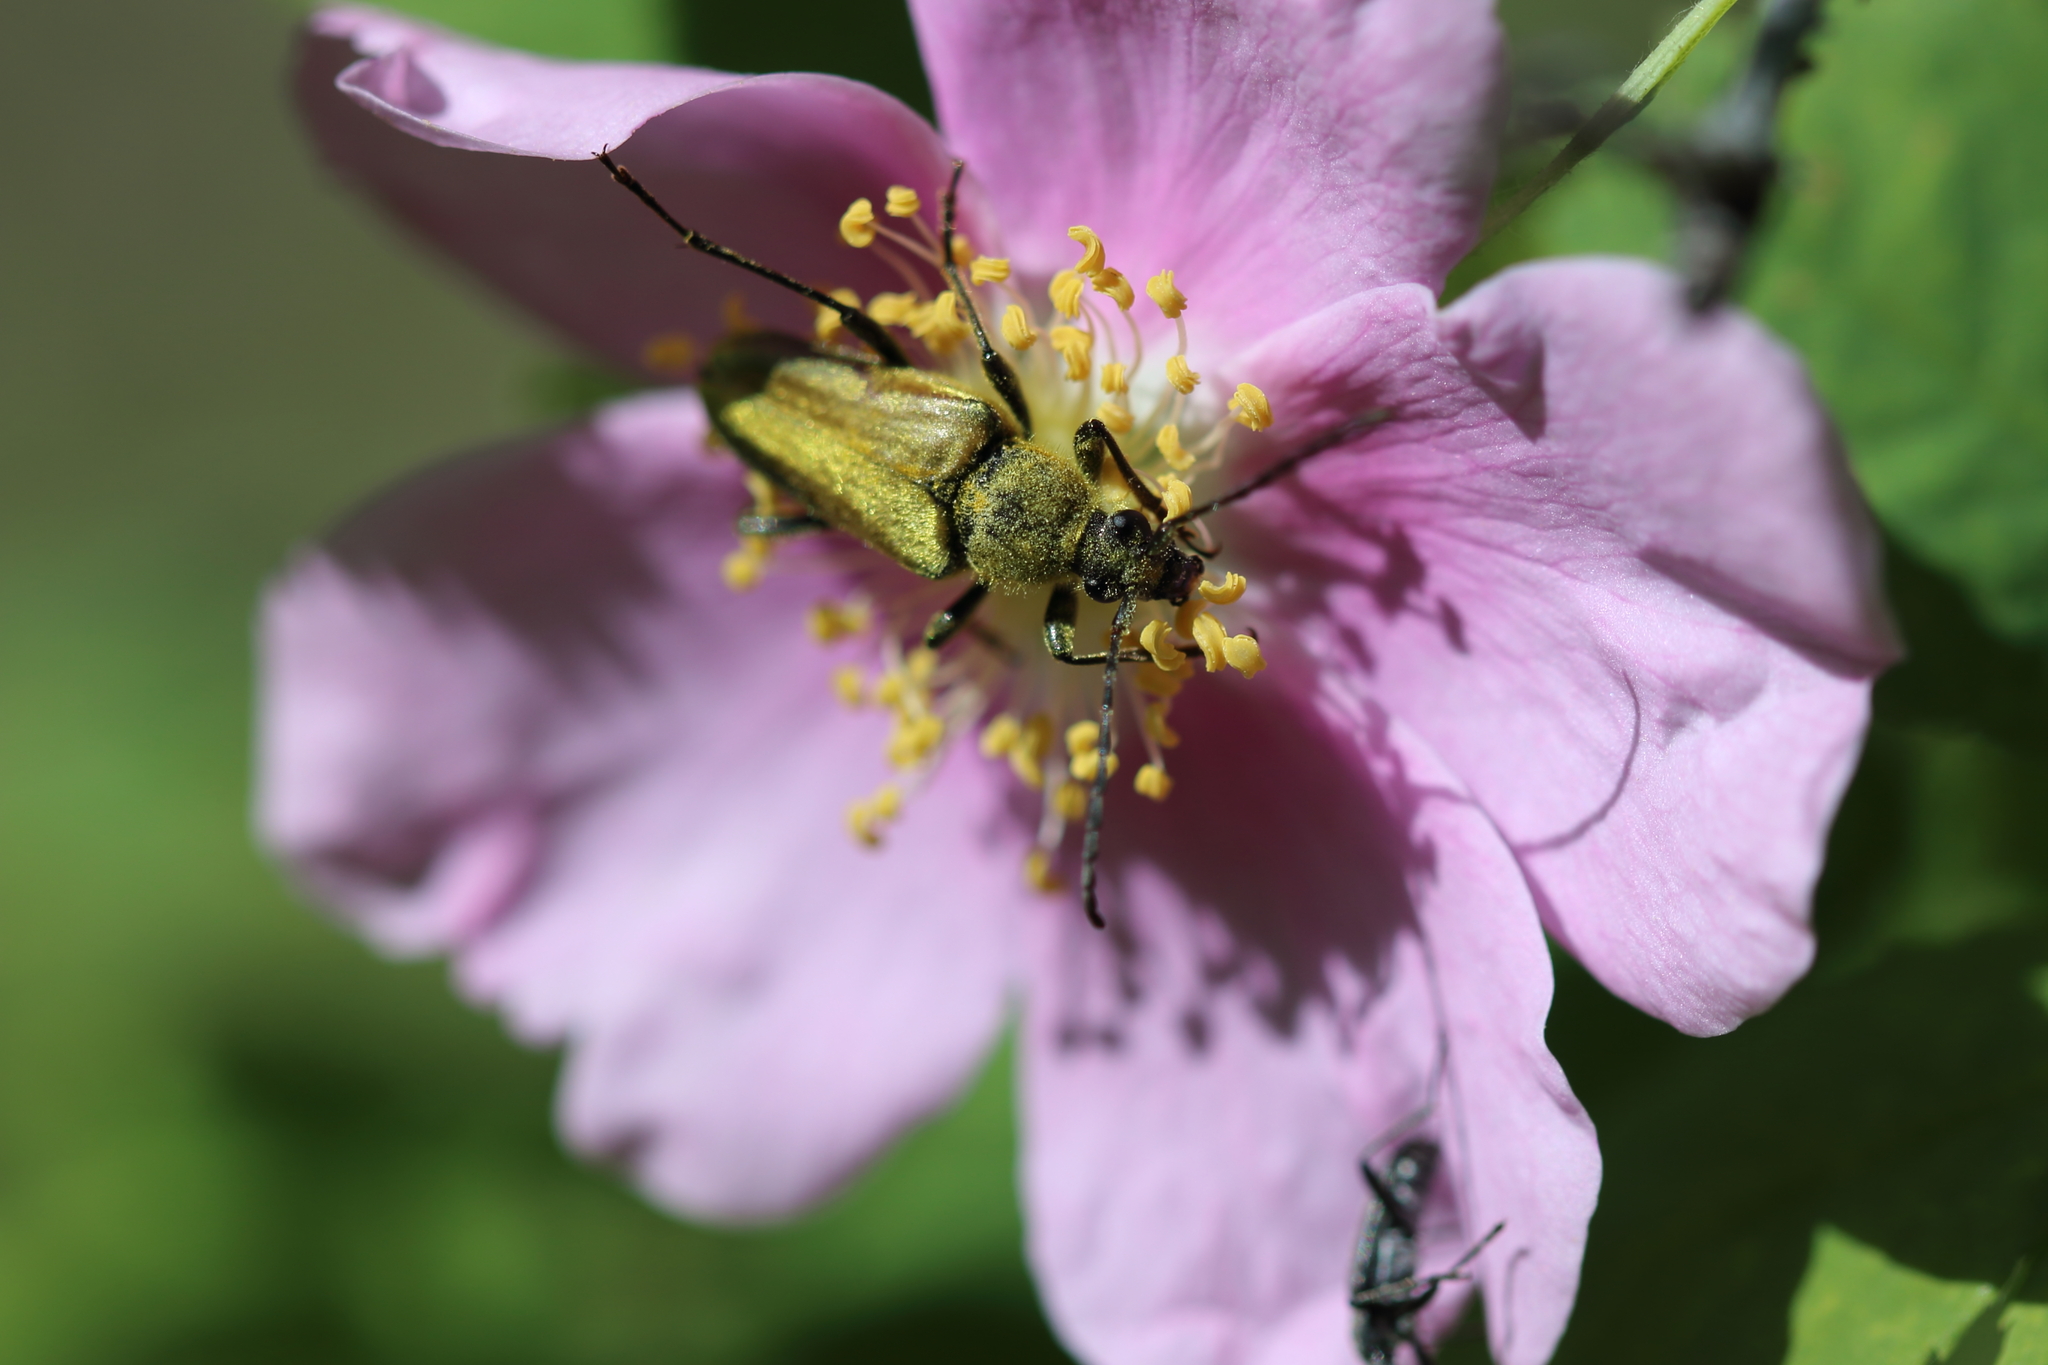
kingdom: Animalia
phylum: Arthropoda
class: Insecta
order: Coleoptera
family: Cerambycidae
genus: Cosmosalia
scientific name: Cosmosalia chrysocoma
